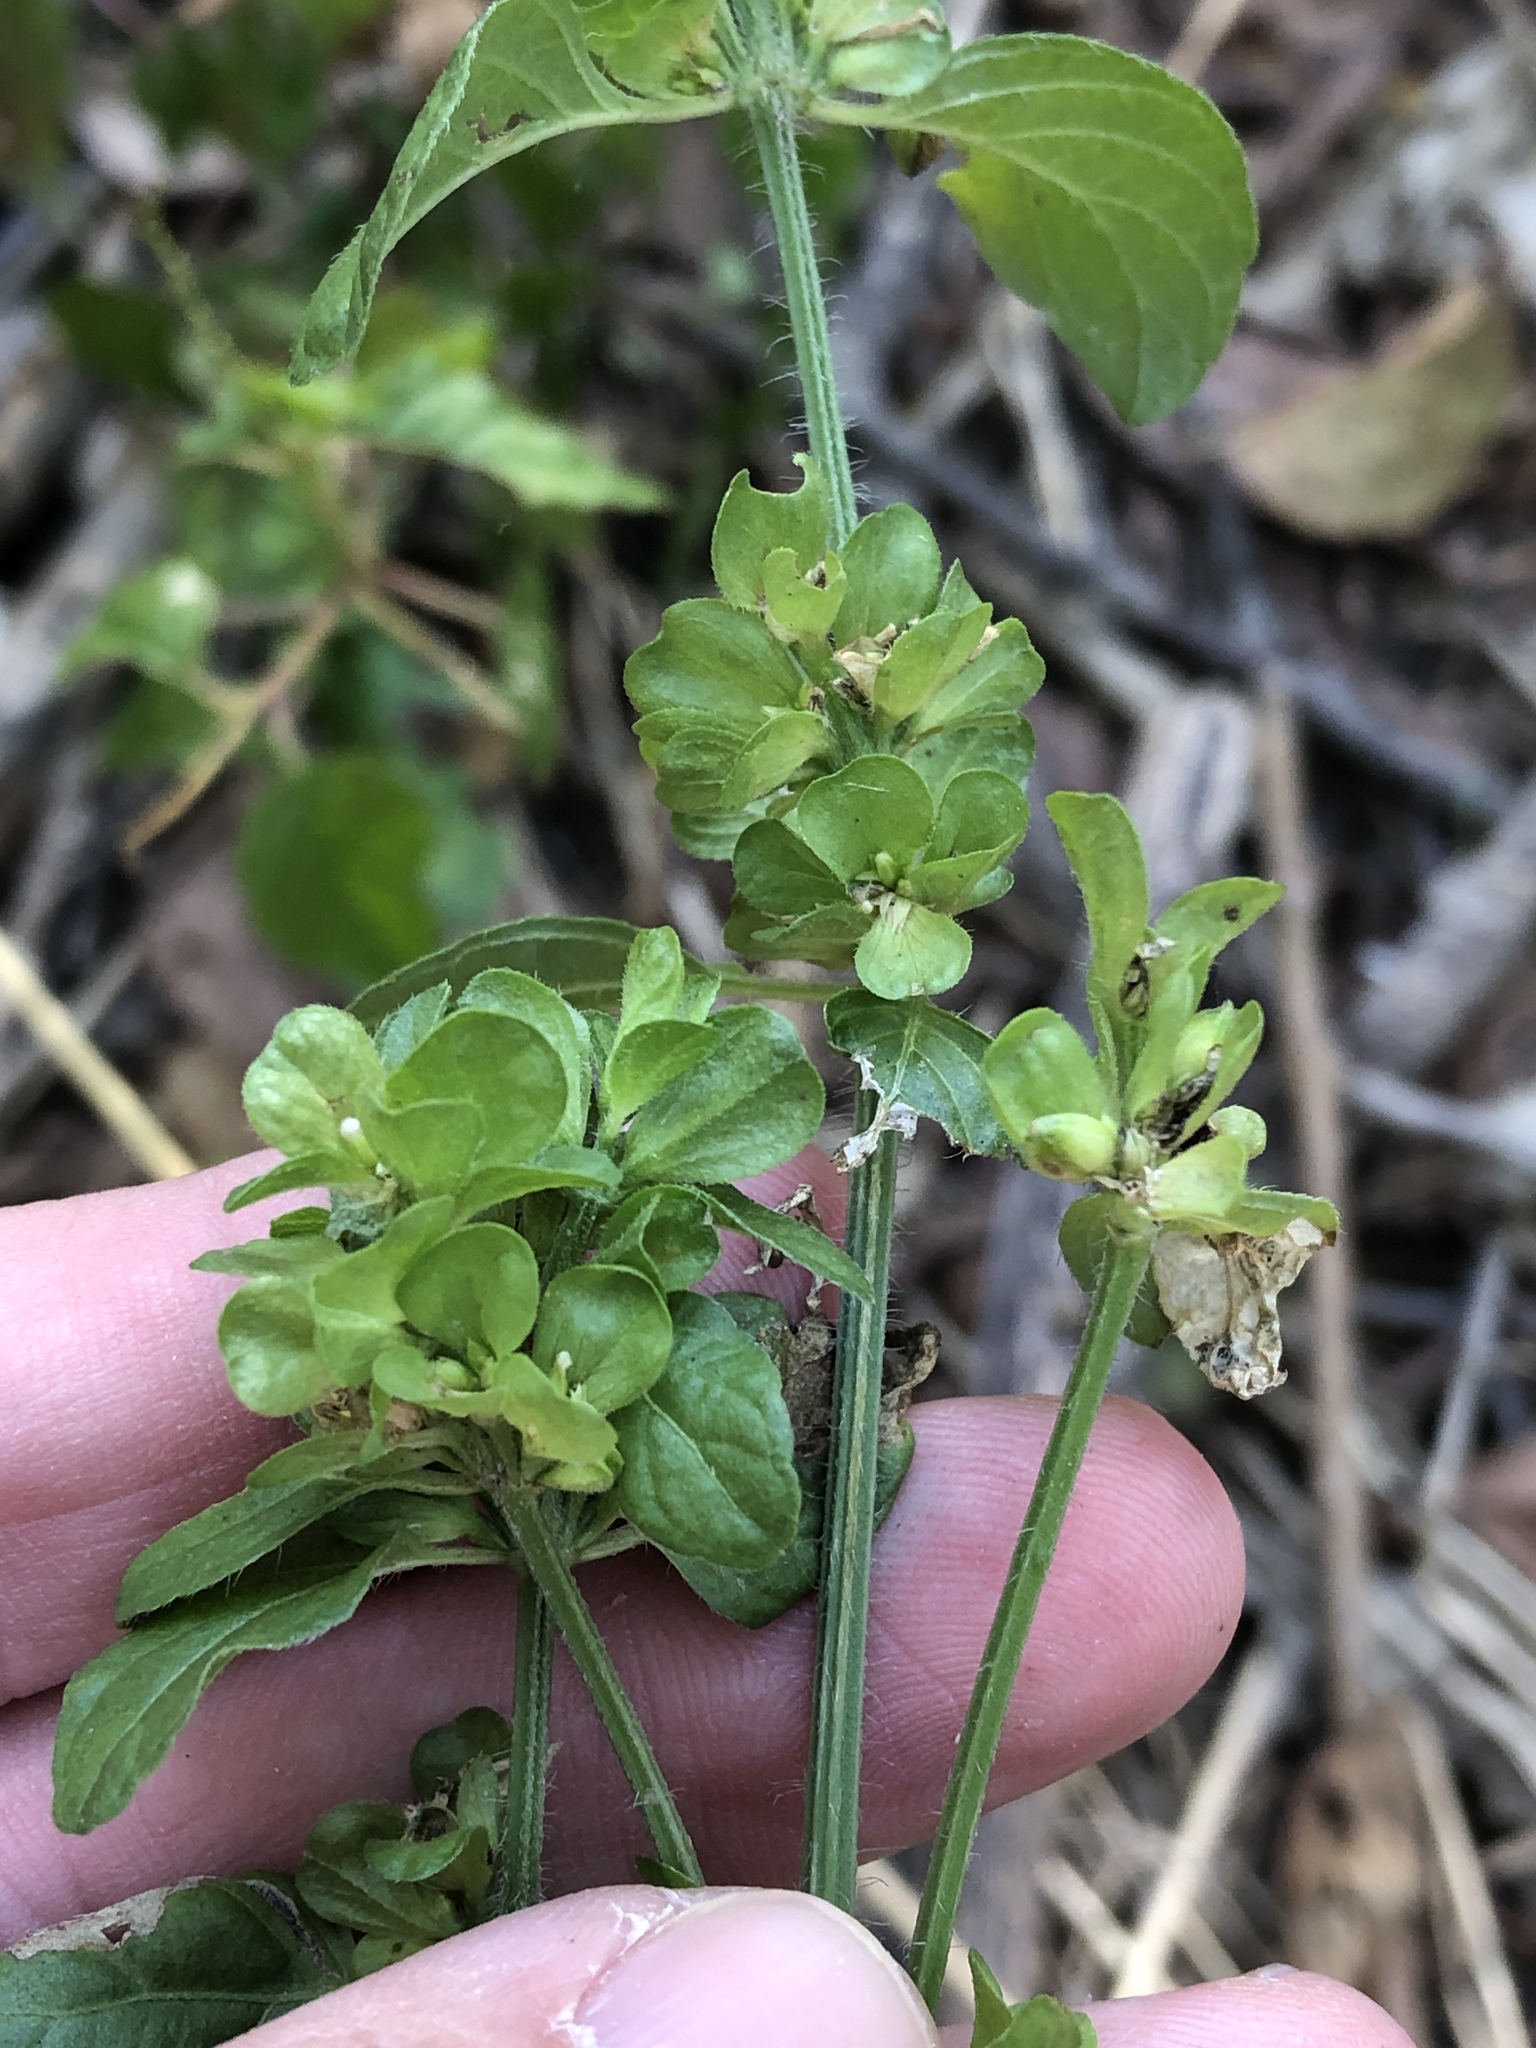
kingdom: Plantae
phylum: Tracheophyta
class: Magnoliopsida
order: Lamiales
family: Acanthaceae
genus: Dicliptera
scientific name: Dicliptera brachiata
